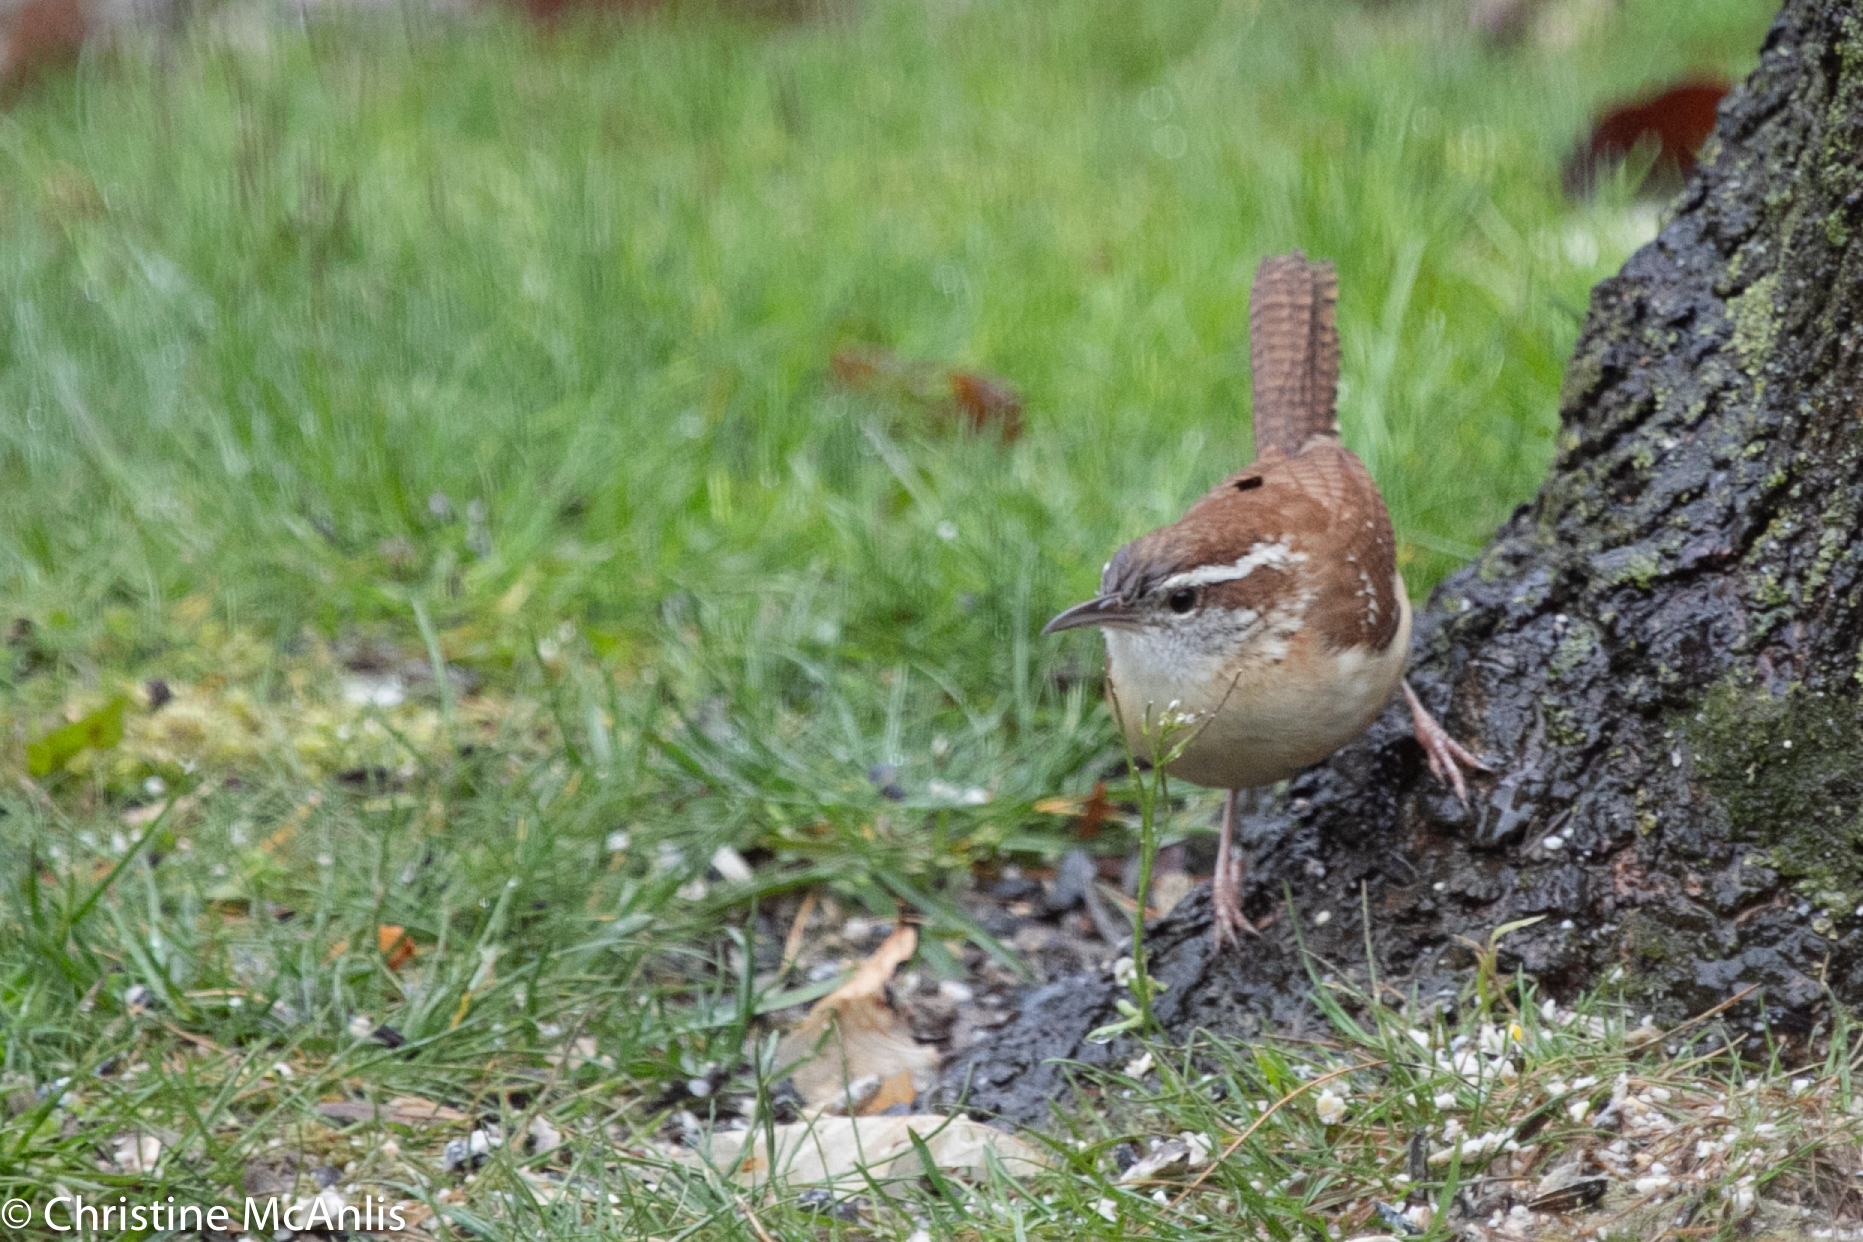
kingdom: Animalia
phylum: Chordata
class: Aves
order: Passeriformes
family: Troglodytidae
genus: Thryothorus
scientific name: Thryothorus ludovicianus
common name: Carolina wren
